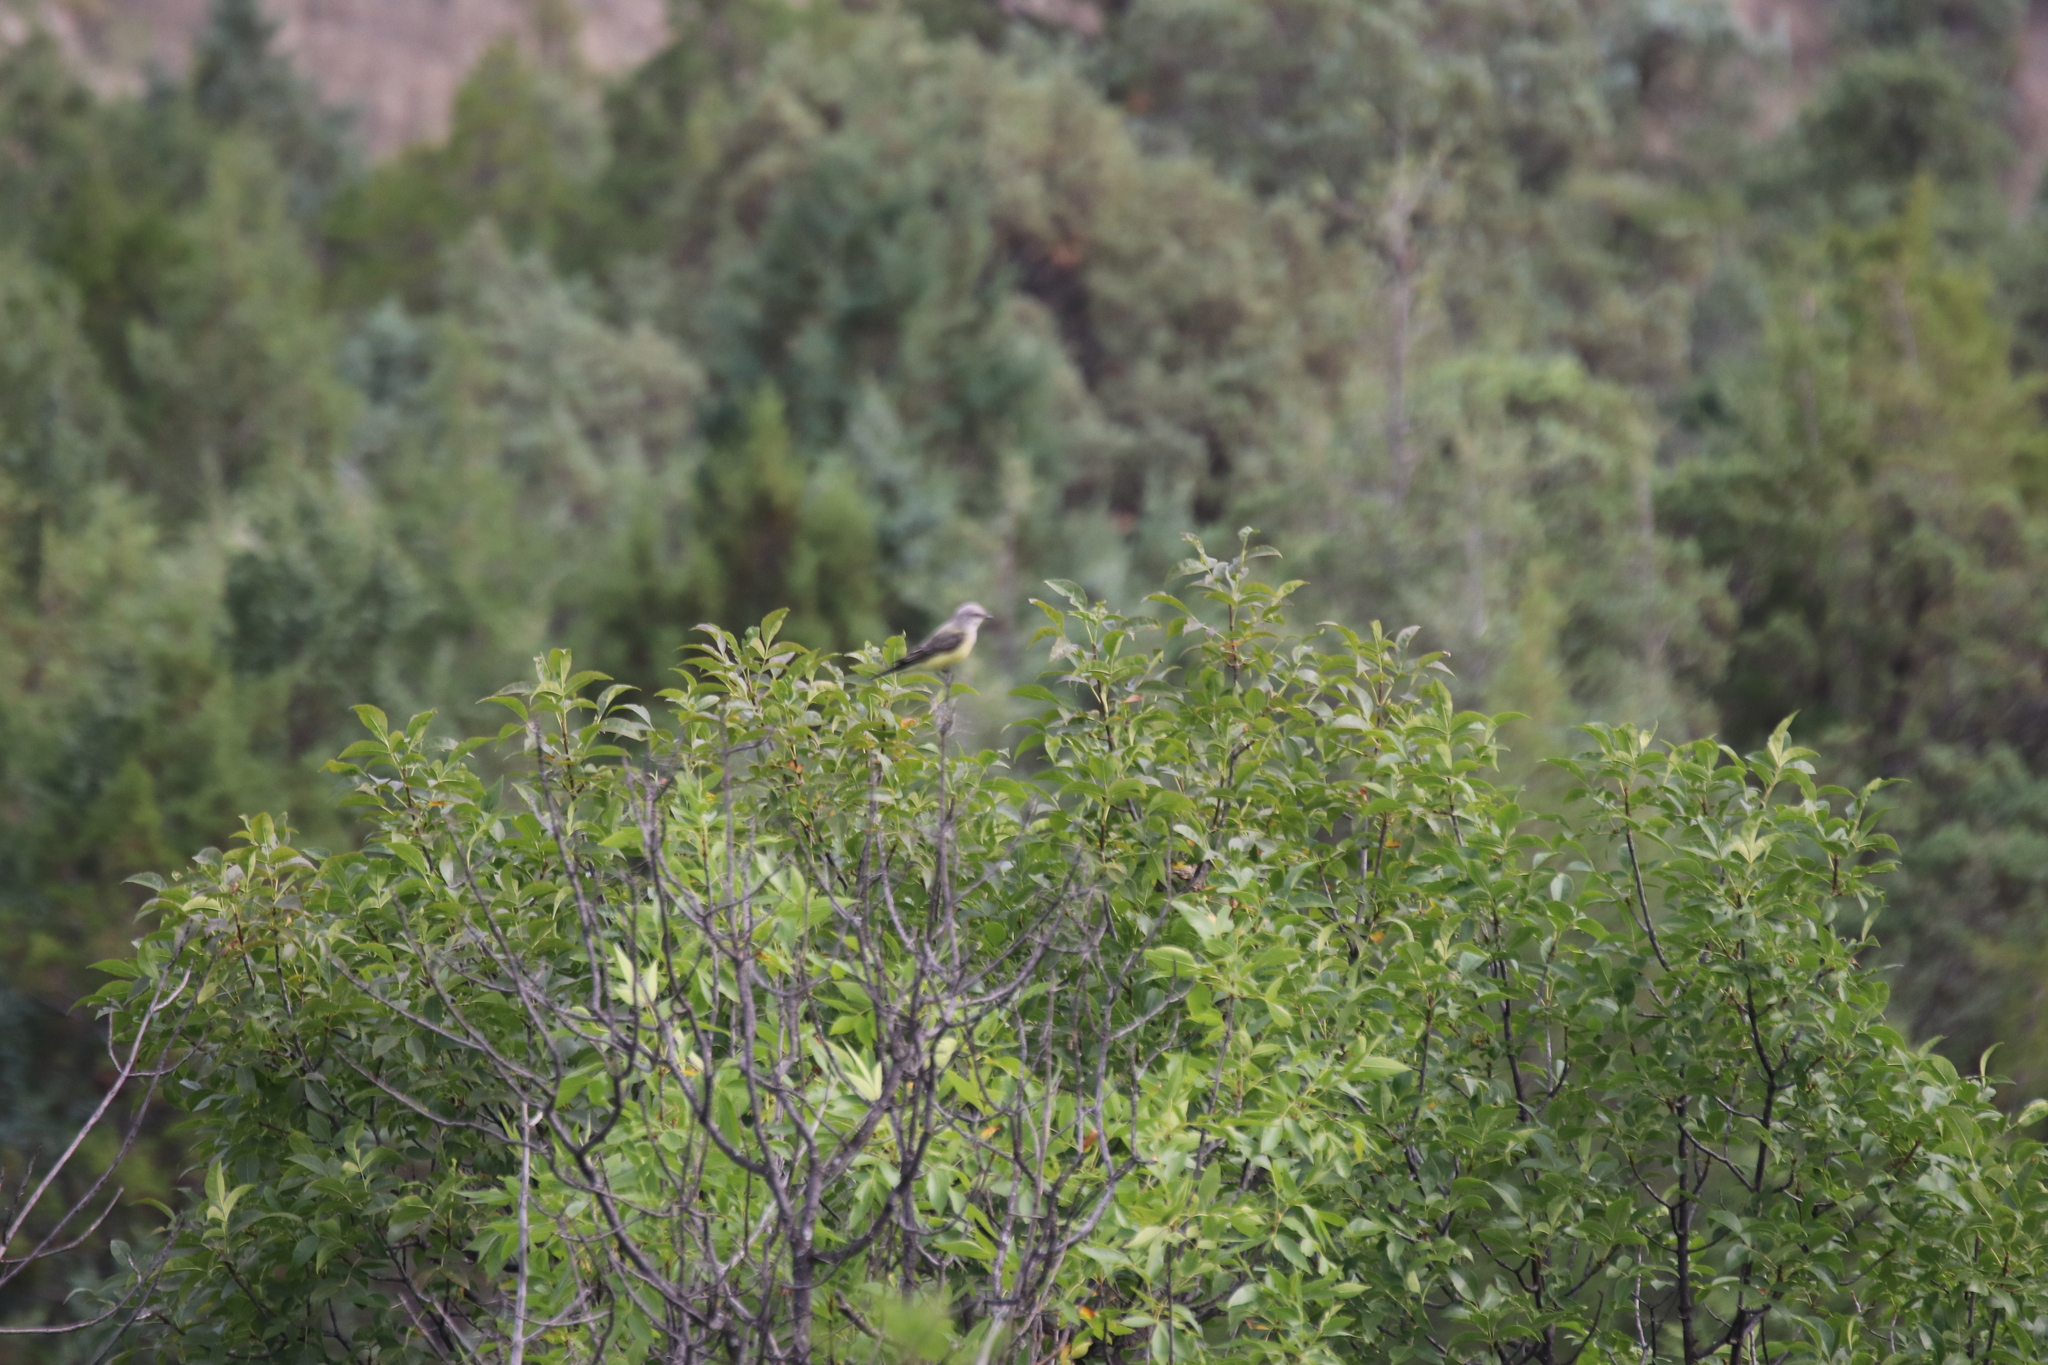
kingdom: Animalia
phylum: Chordata
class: Aves
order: Passeriformes
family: Tyrannidae
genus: Tyrannus
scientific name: Tyrannus verticalis
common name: Western kingbird
